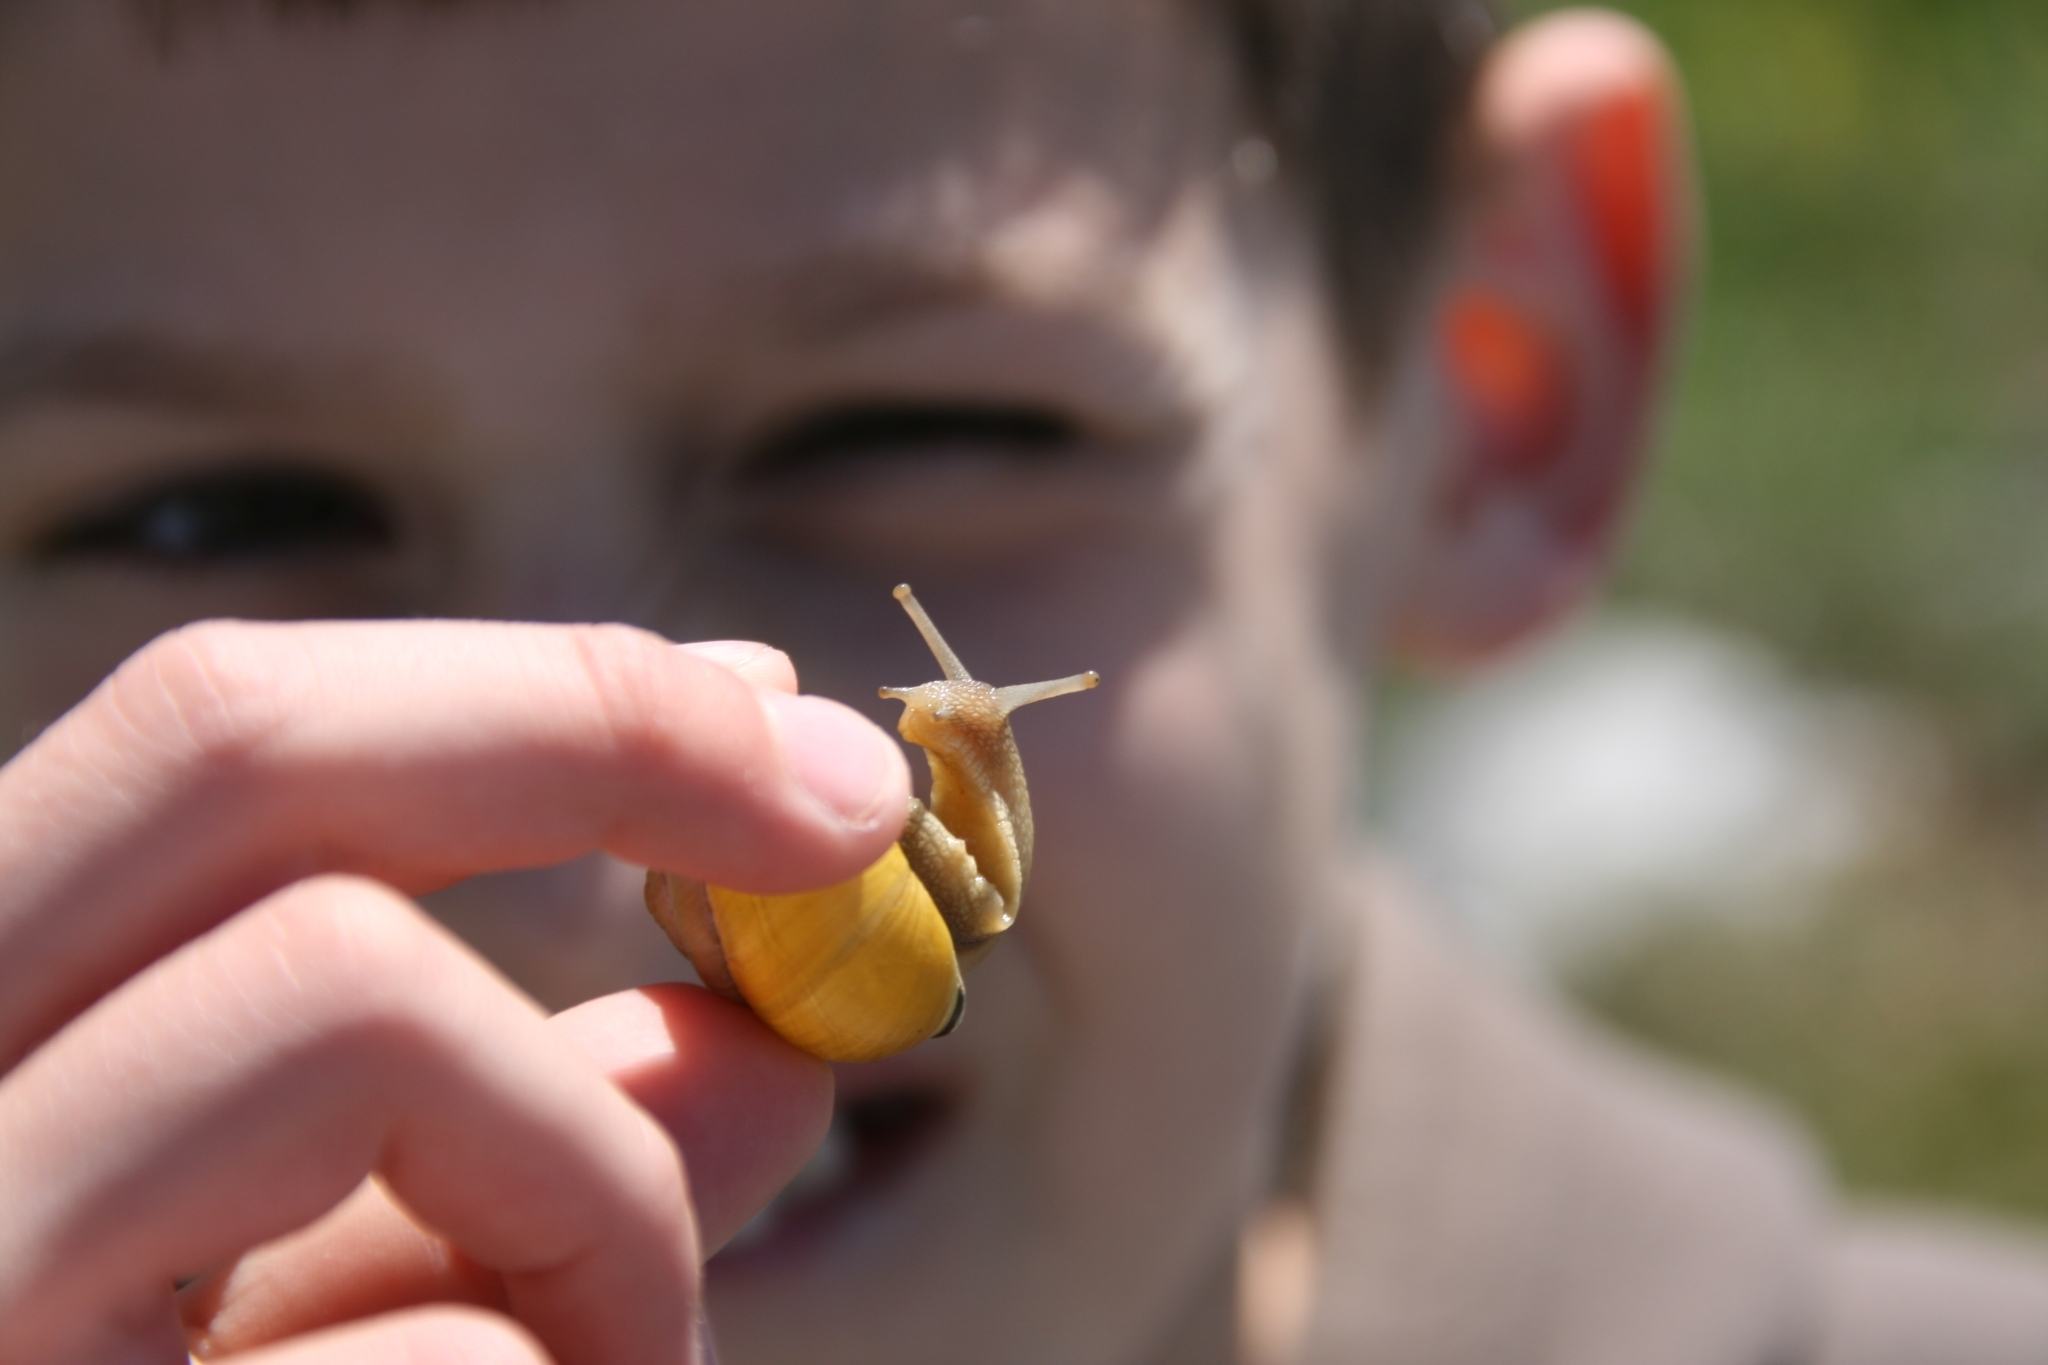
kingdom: Animalia
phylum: Mollusca
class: Gastropoda
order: Stylommatophora
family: Helicidae
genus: Cepaea
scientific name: Cepaea nemoralis
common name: Grovesnail
